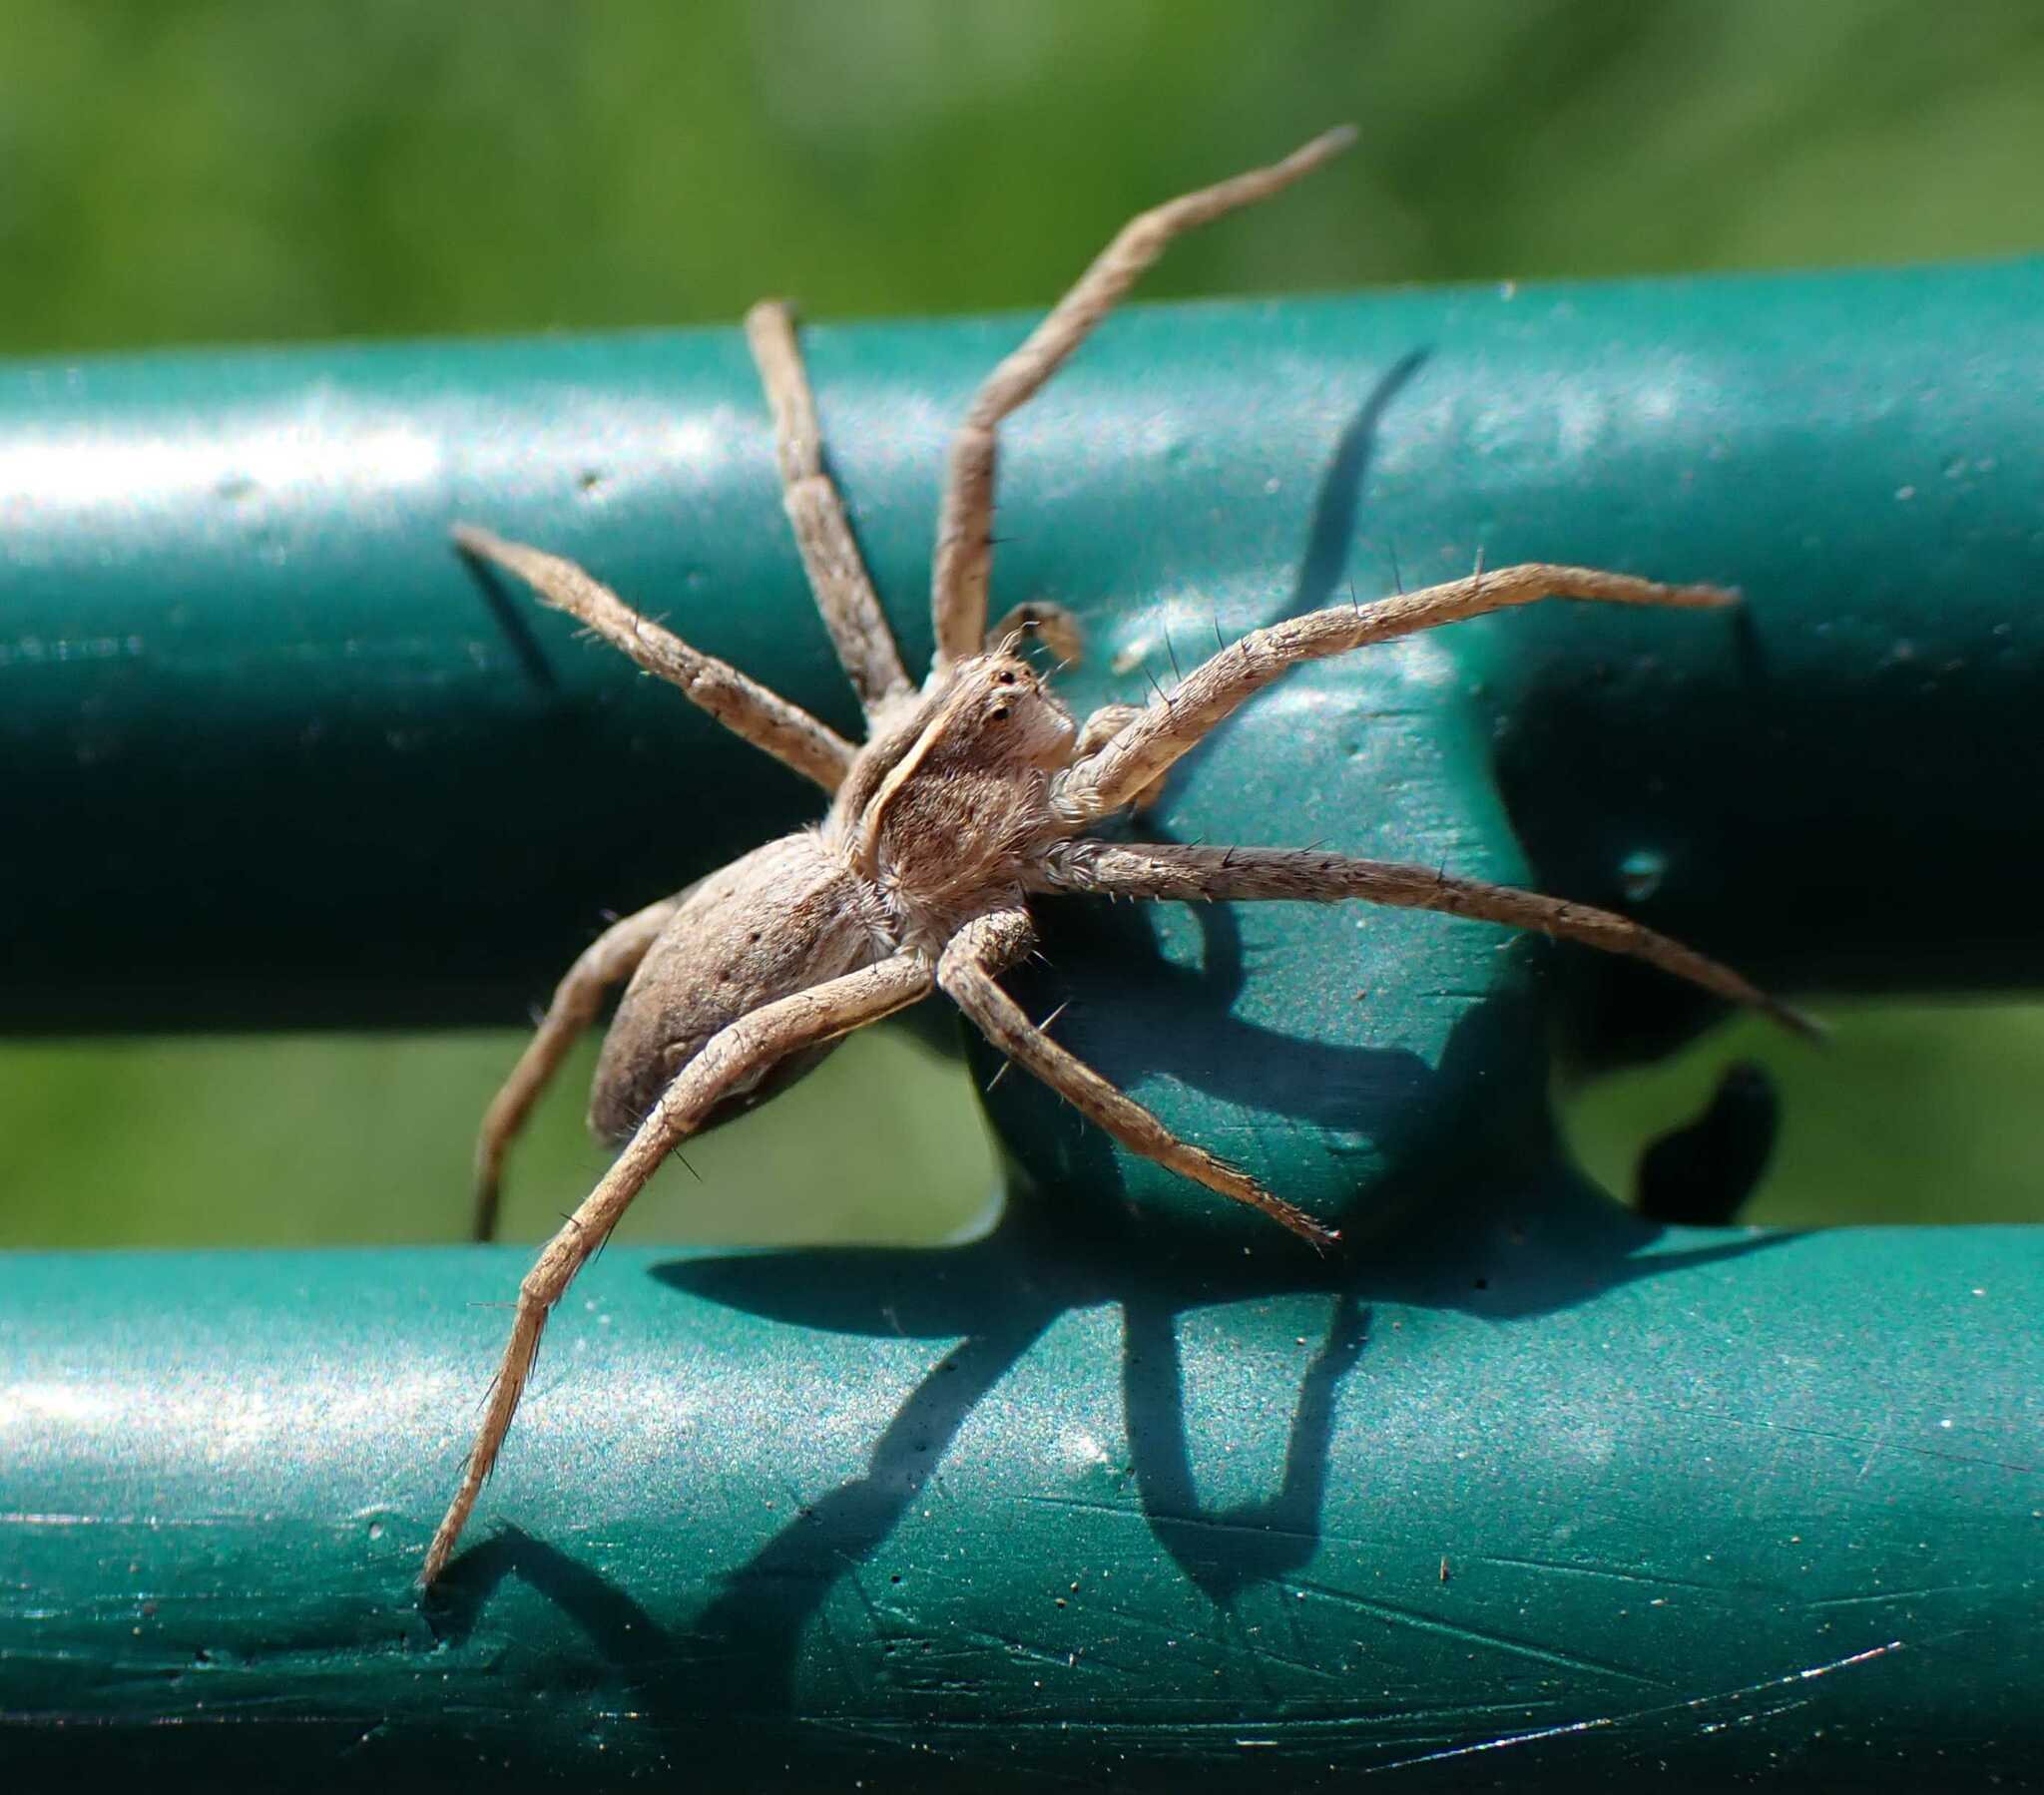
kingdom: Animalia
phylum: Arthropoda
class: Arachnida
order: Araneae
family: Pisauridae
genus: Pisaura
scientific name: Pisaura mirabilis
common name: Tent spider
